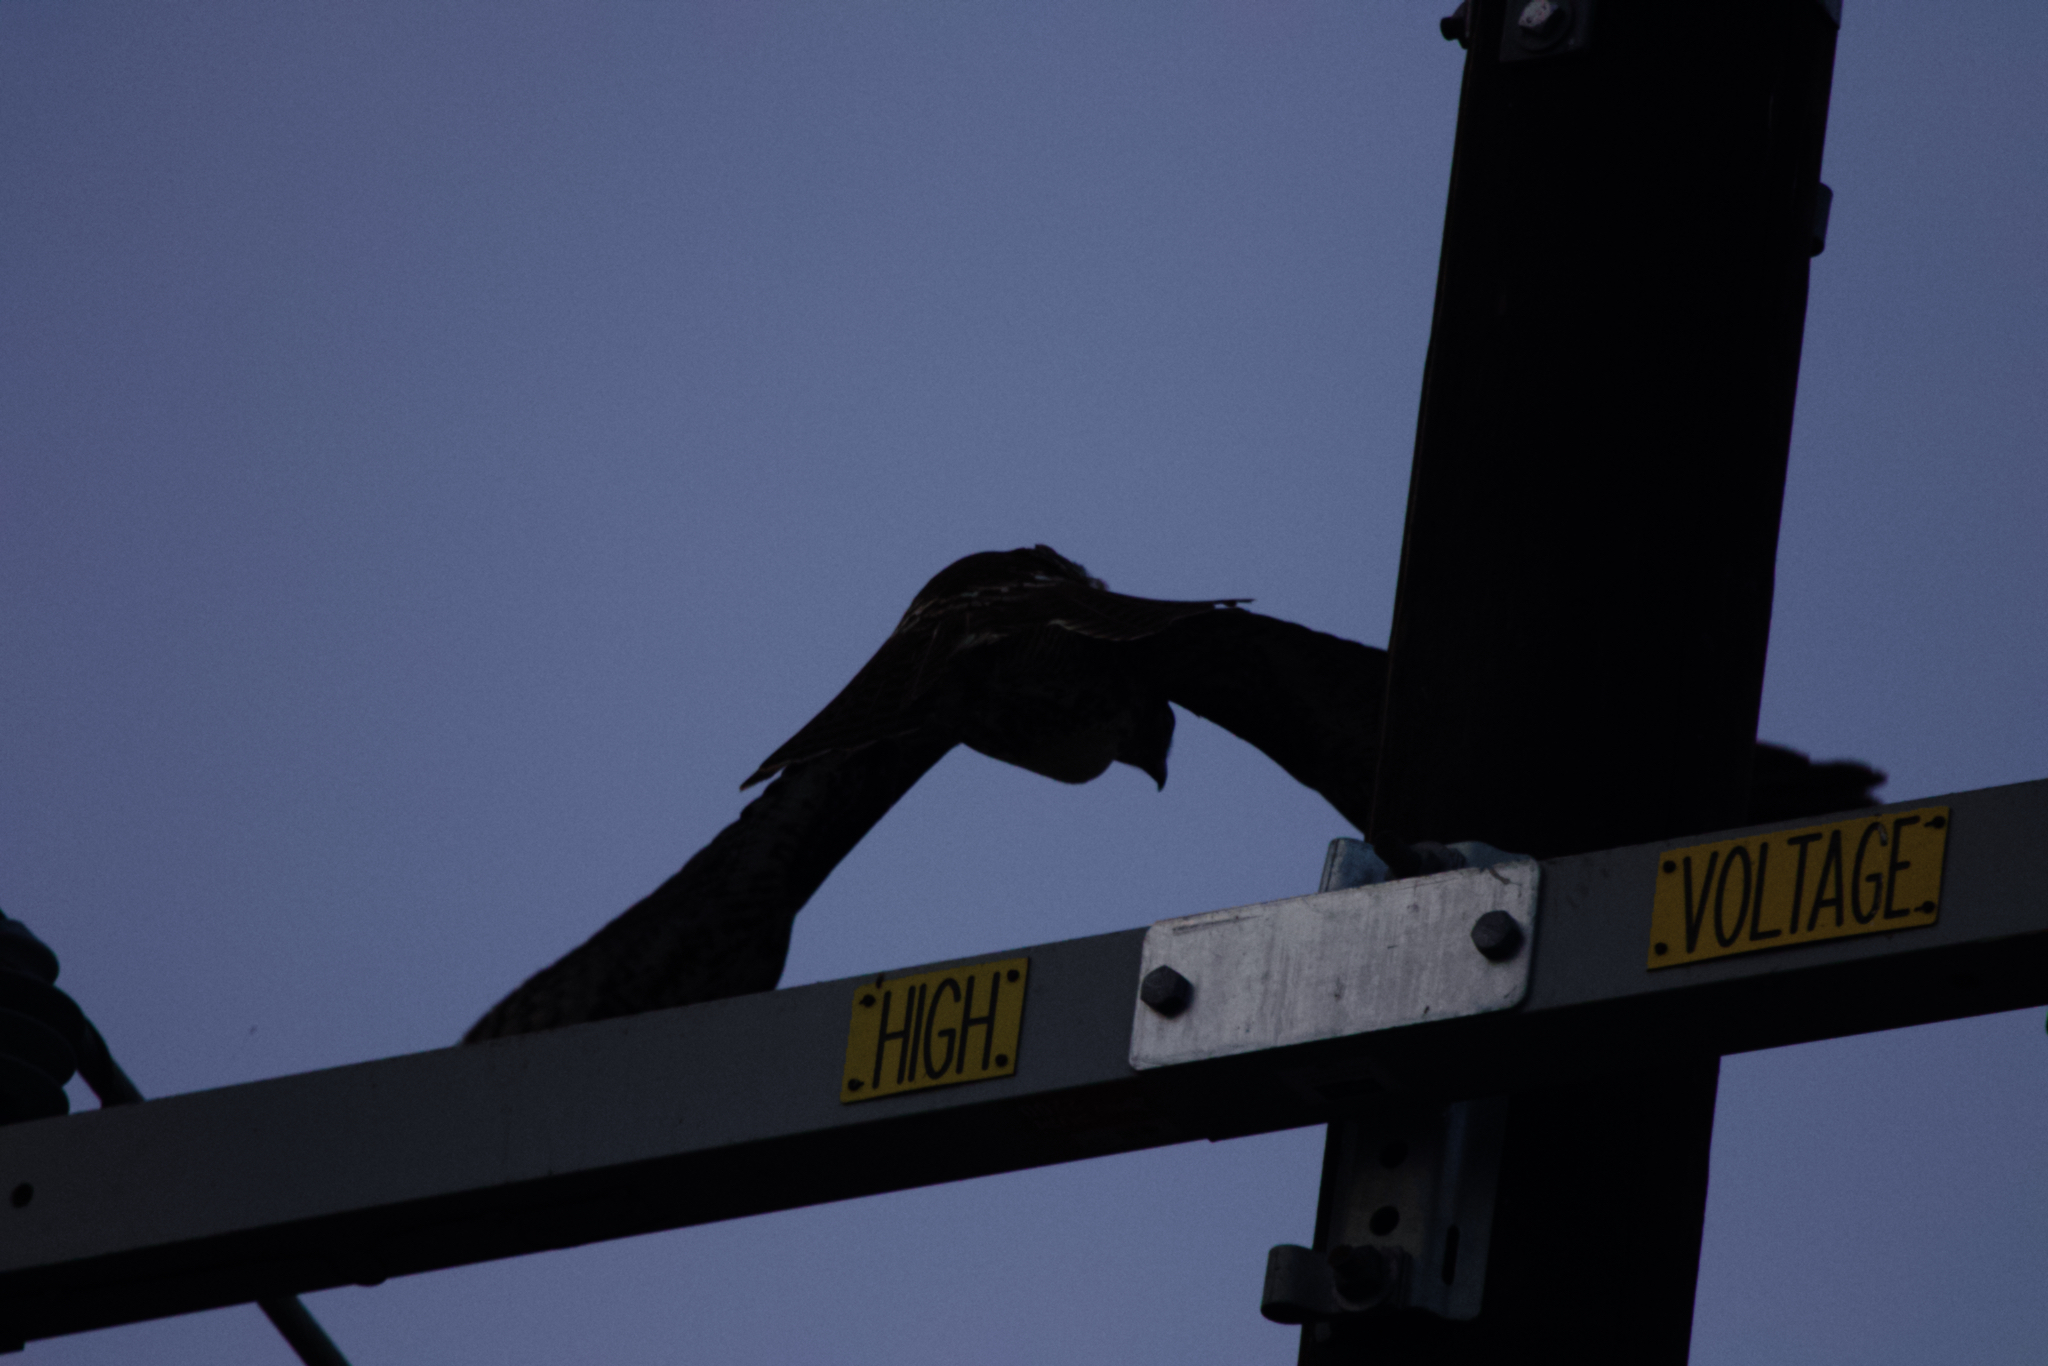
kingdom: Animalia
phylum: Chordata
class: Aves
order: Accipitriformes
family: Accipitridae
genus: Buteo
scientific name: Buteo jamaicensis
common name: Red-tailed hawk
